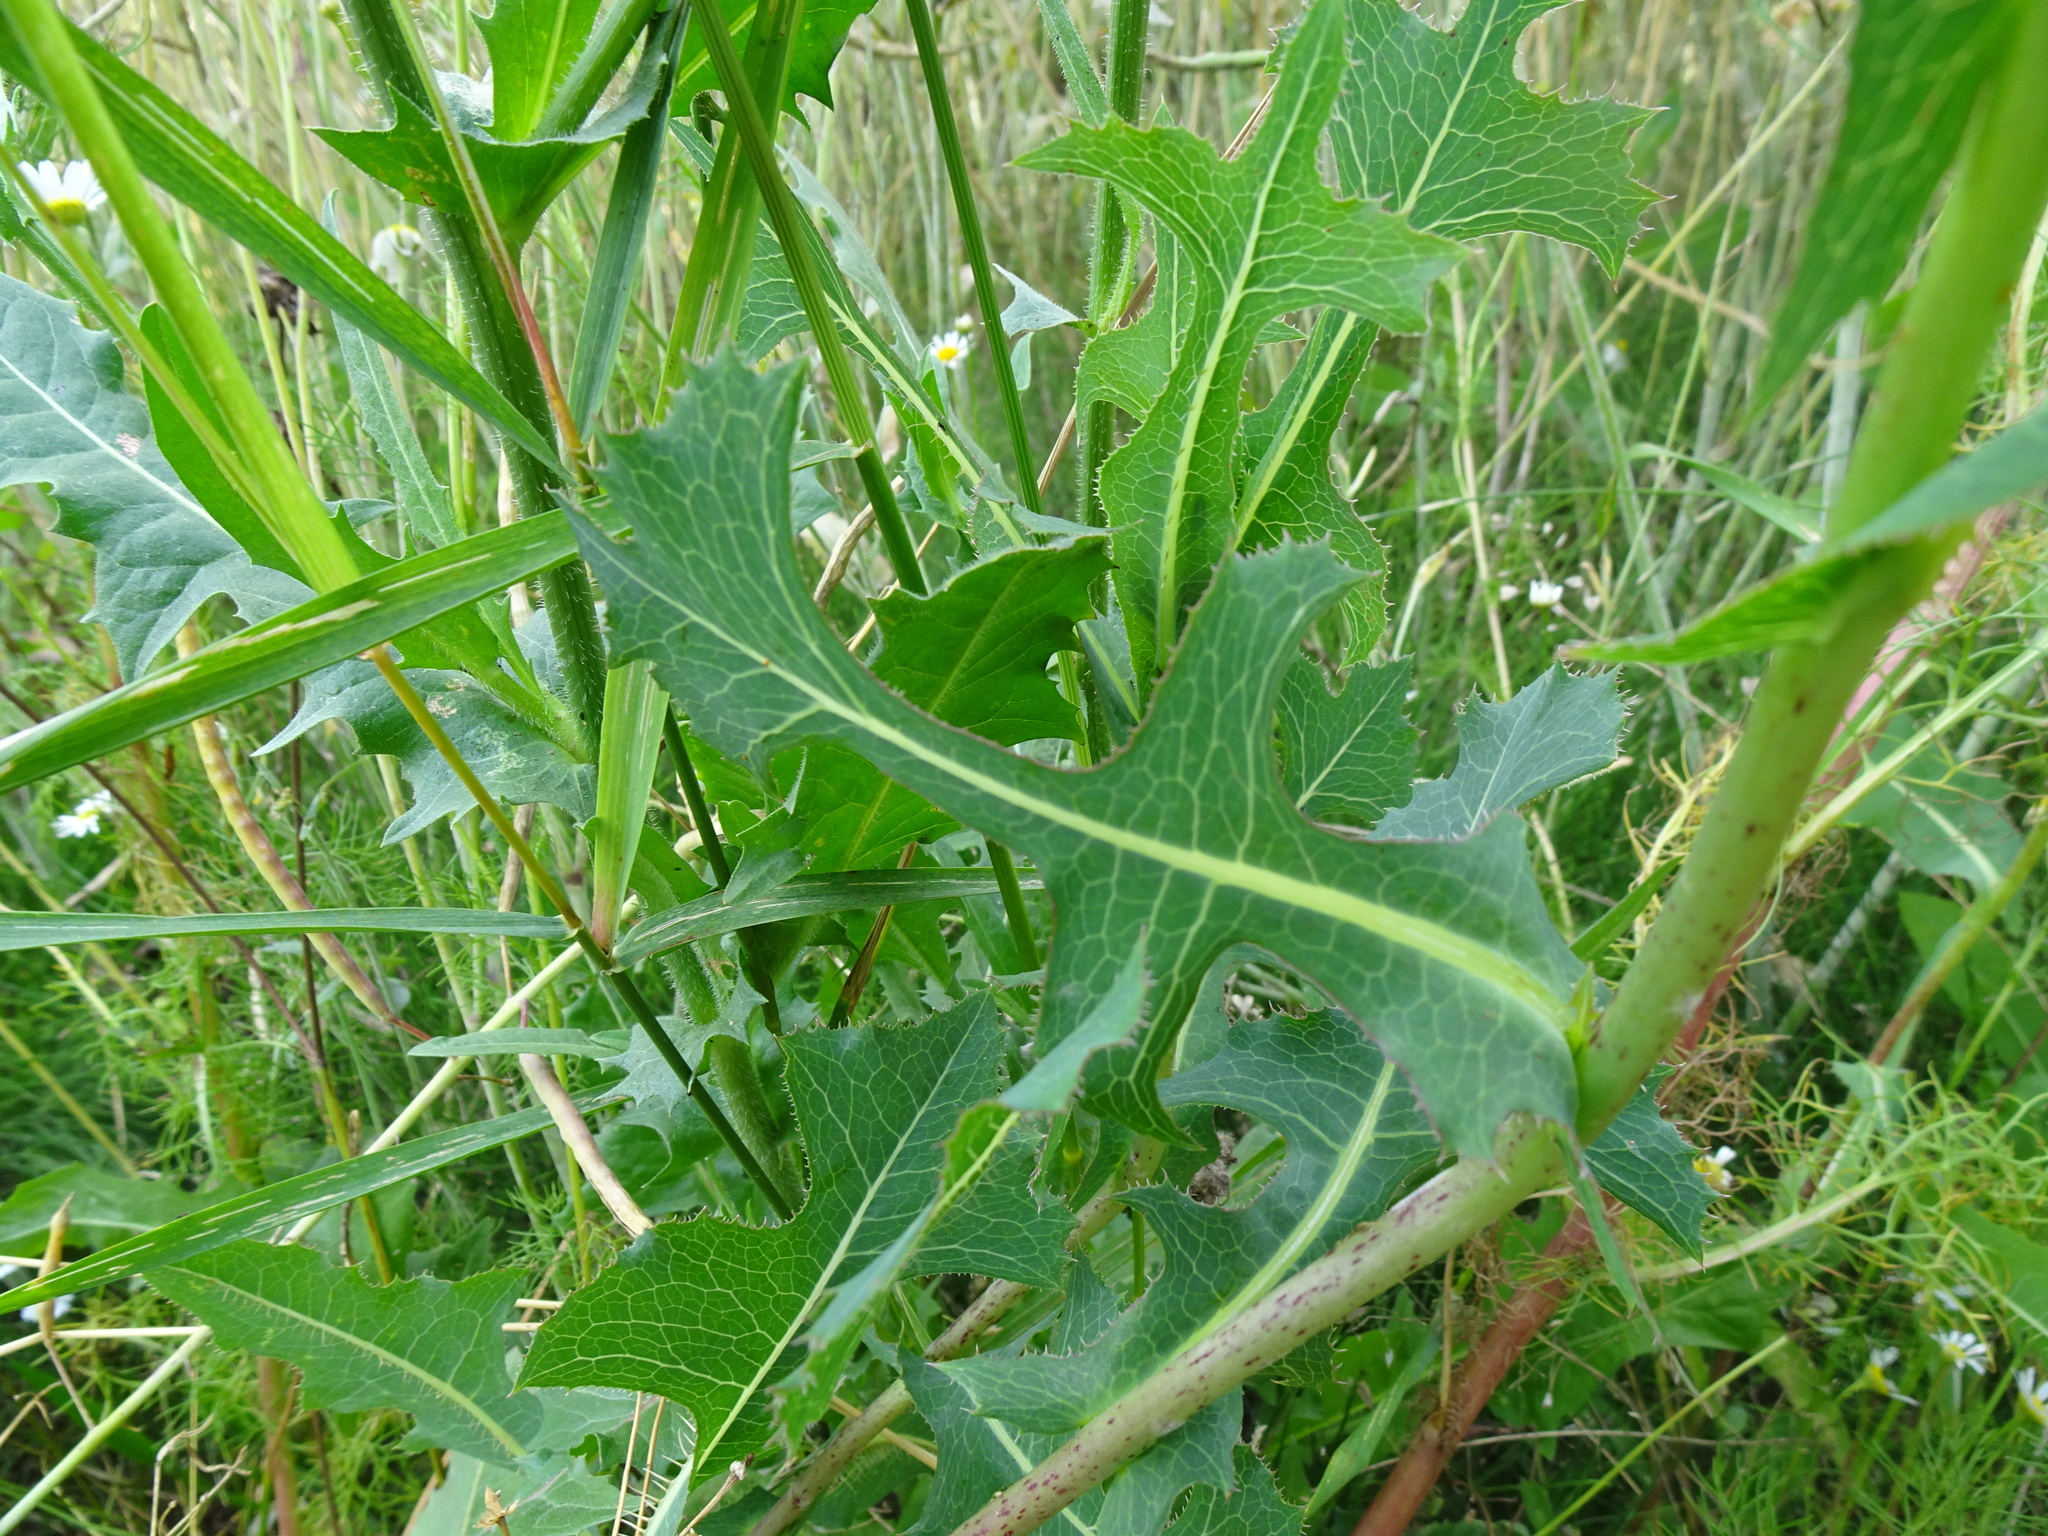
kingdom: Plantae
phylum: Tracheophyta
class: Magnoliopsida
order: Asterales
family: Asteraceae
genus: Lactuca
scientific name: Lactuca serriola
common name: Prickly lettuce
